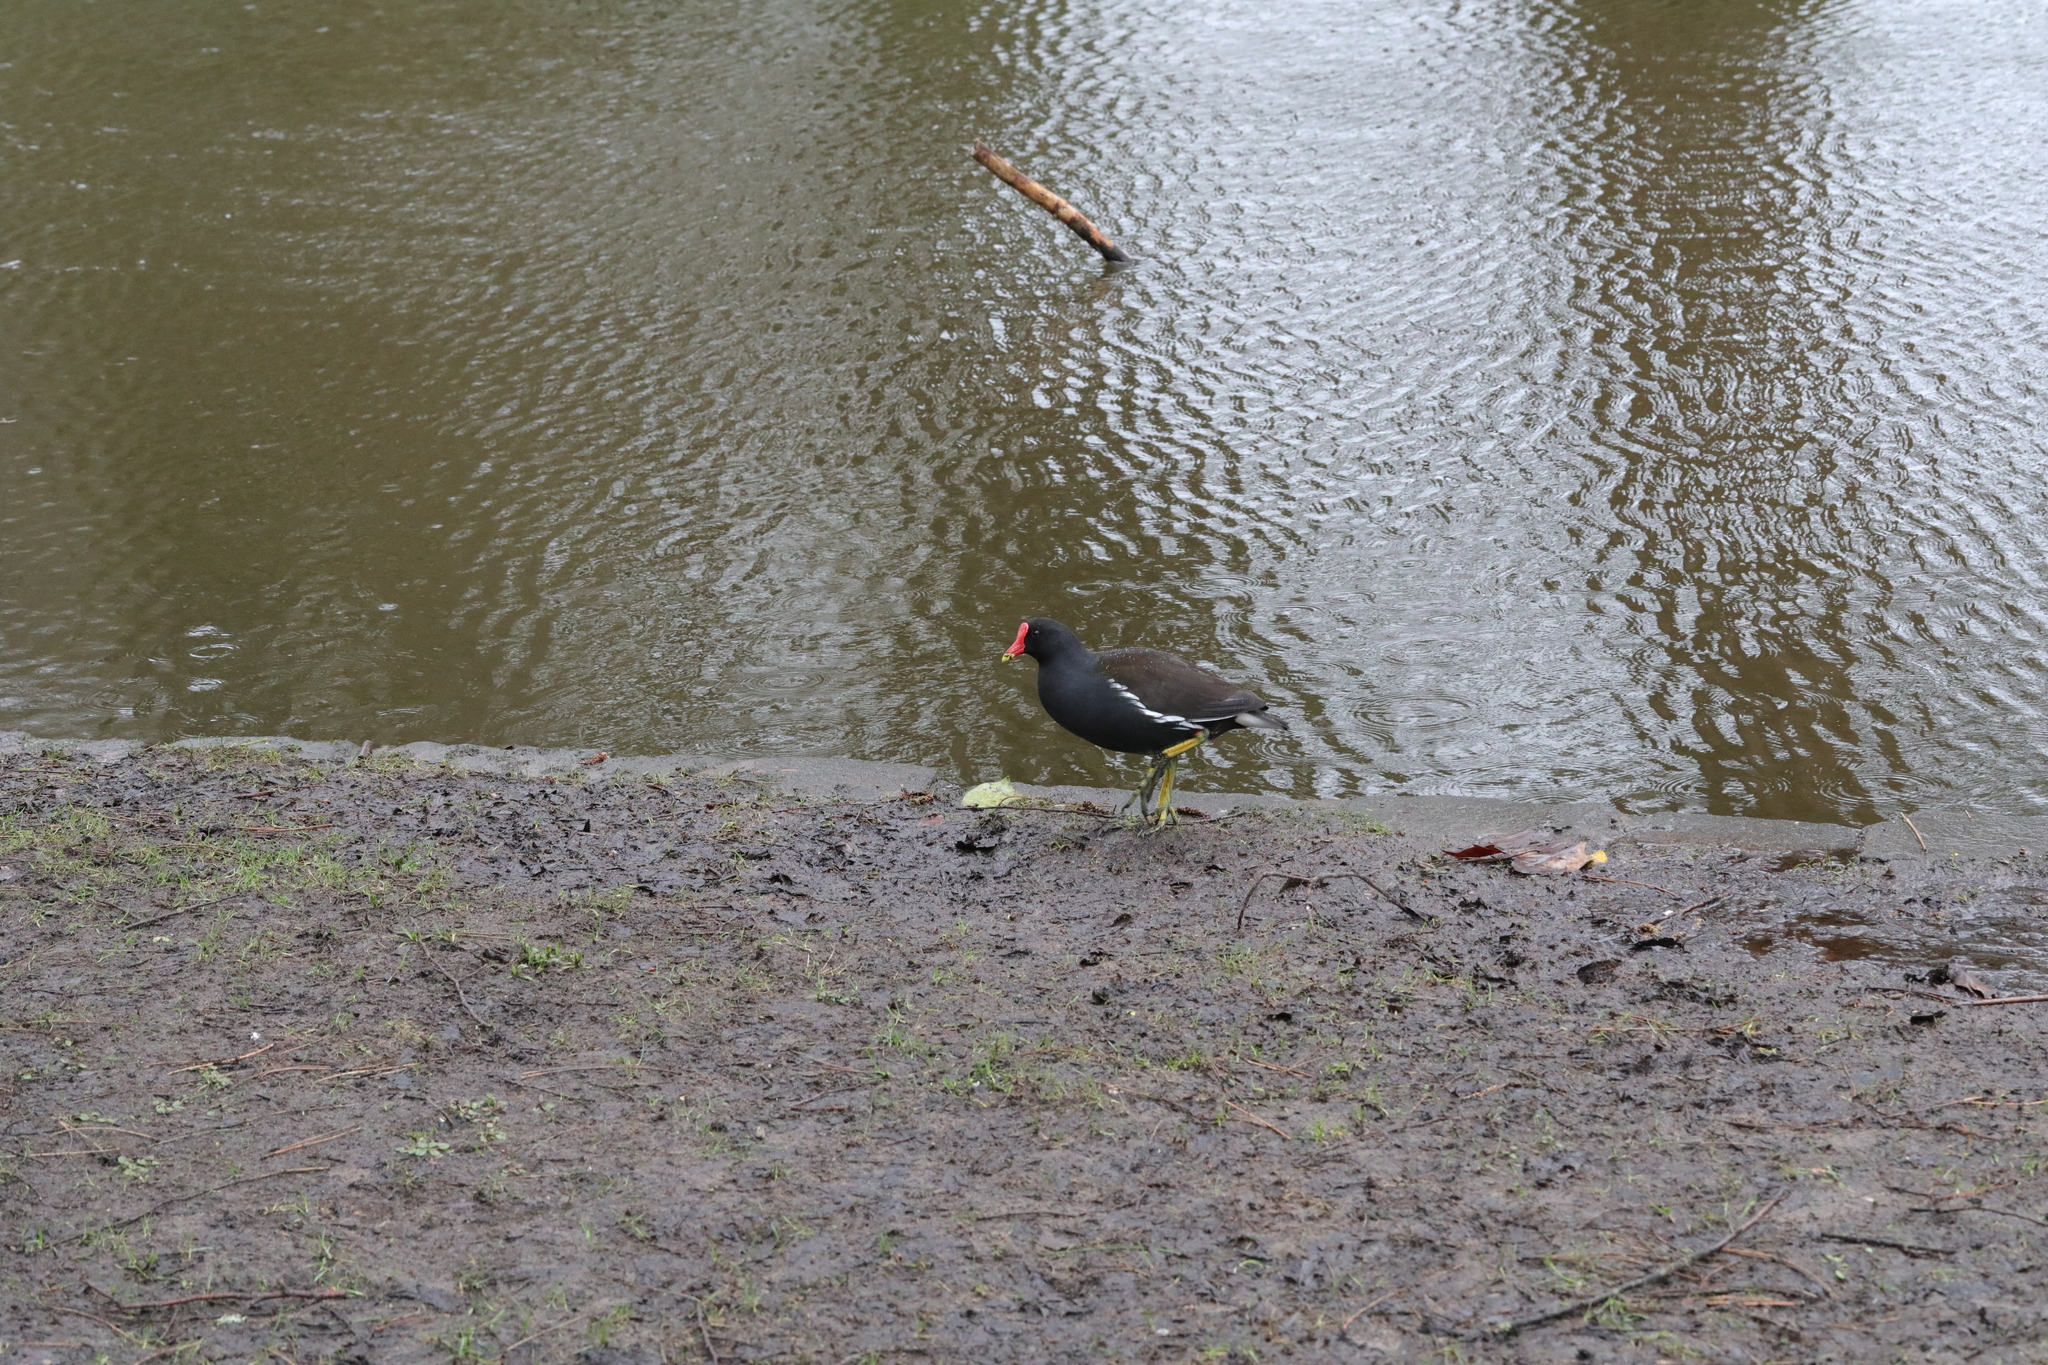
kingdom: Animalia
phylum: Chordata
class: Aves
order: Gruiformes
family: Rallidae
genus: Gallinula
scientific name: Gallinula chloropus
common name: Common moorhen
